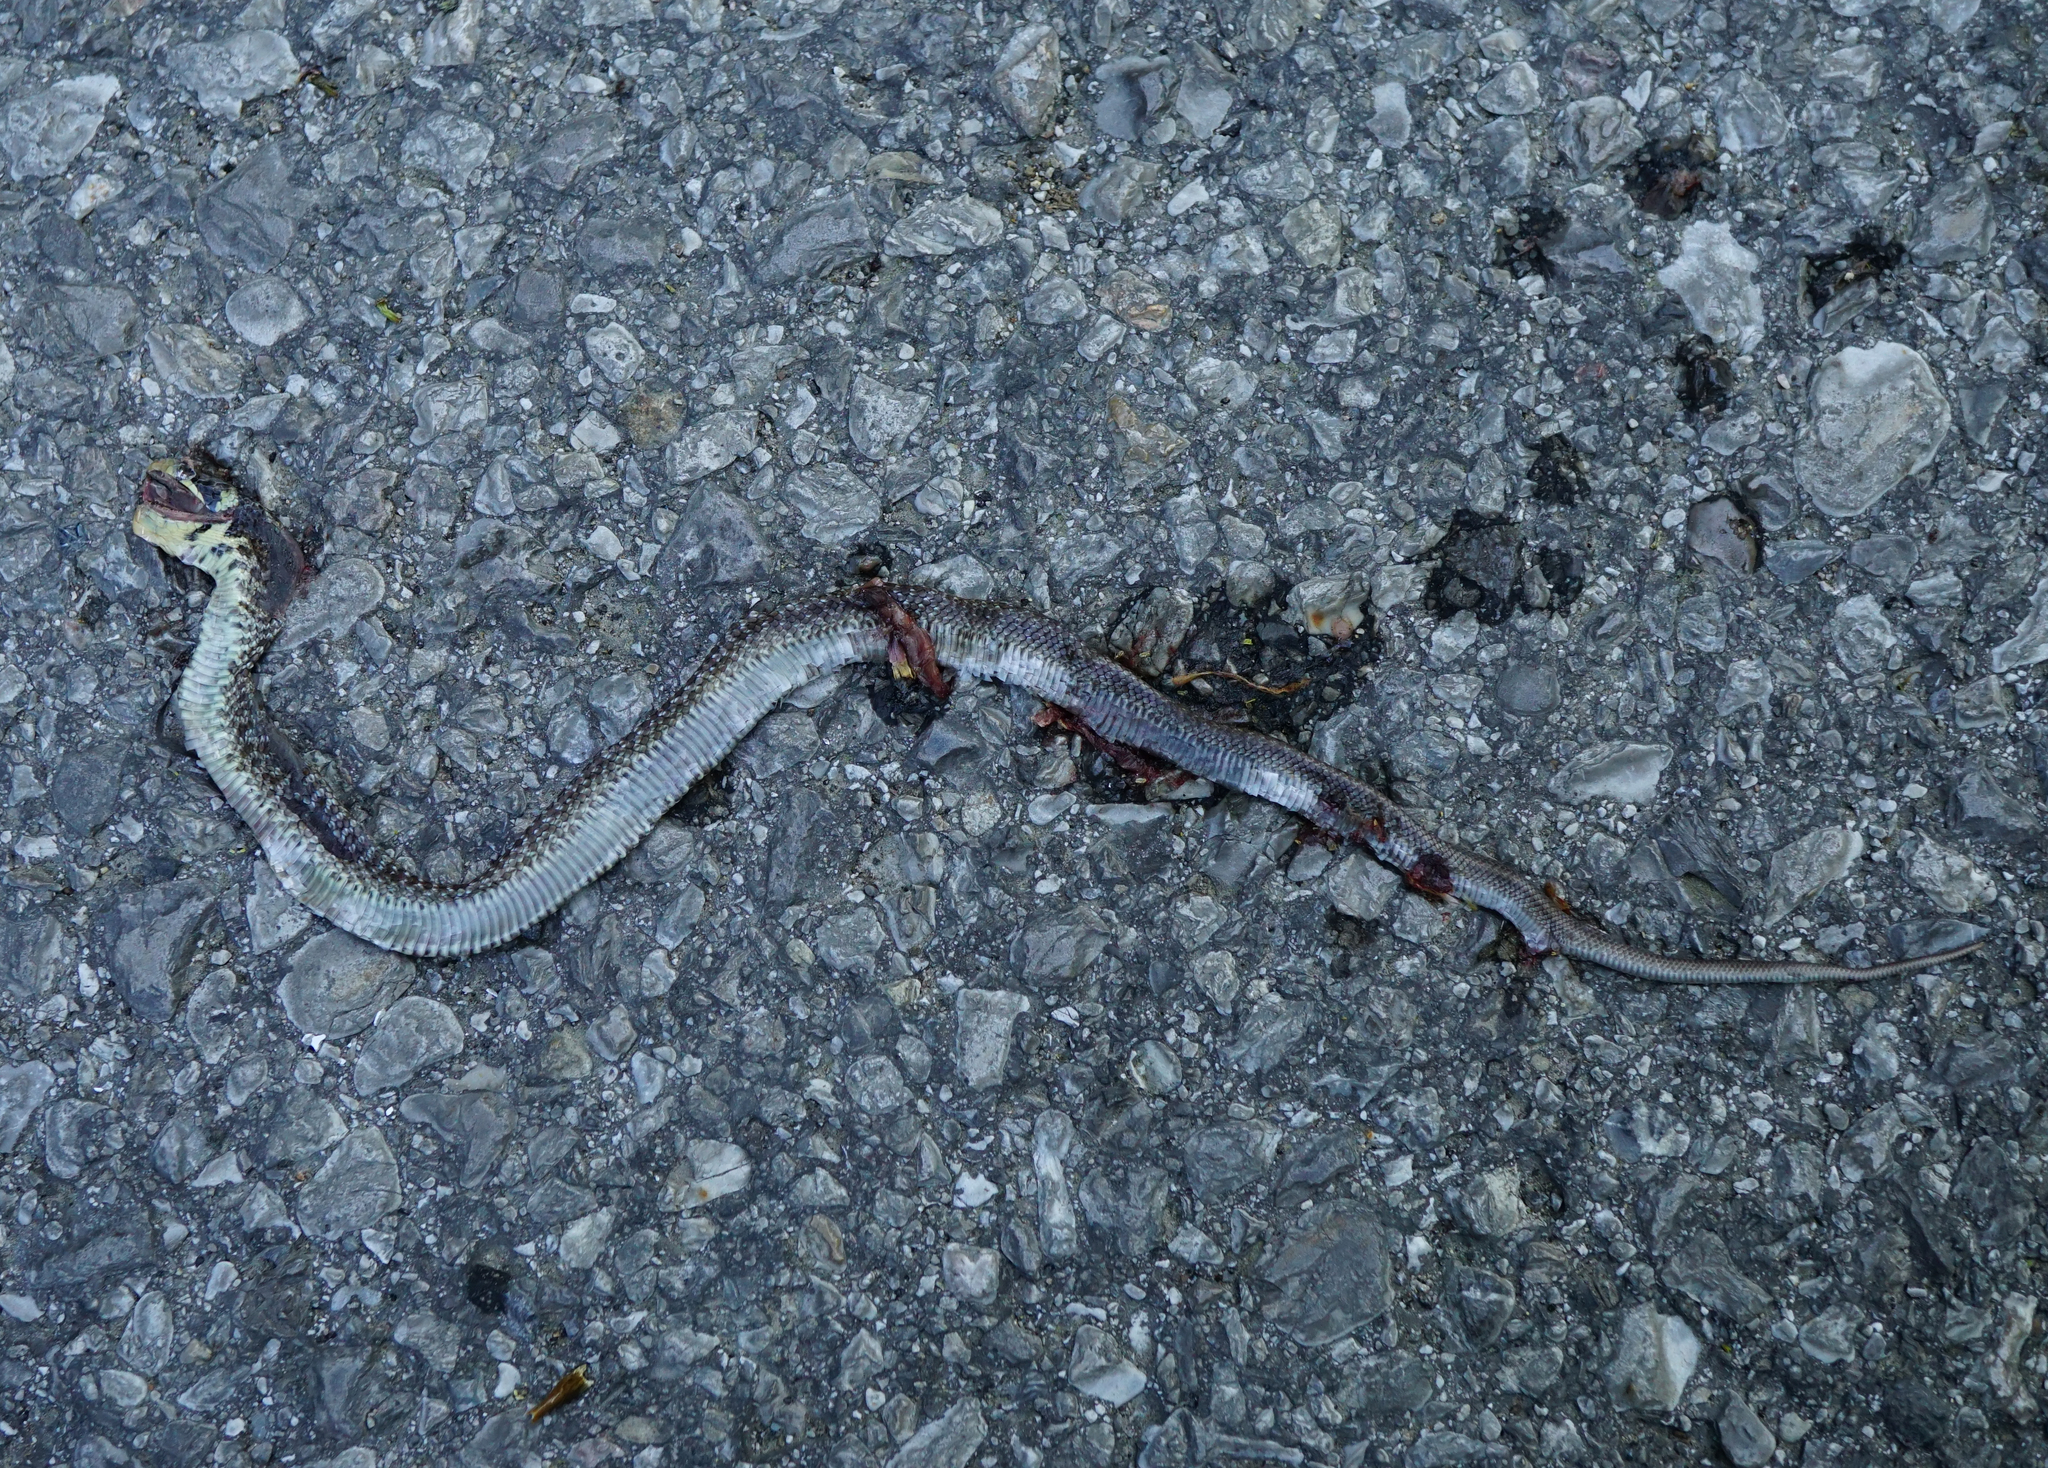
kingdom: Animalia
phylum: Chordata
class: Squamata
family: Colubridae
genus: Zamenis
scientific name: Zamenis longissimus
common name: Aesculapean snake
